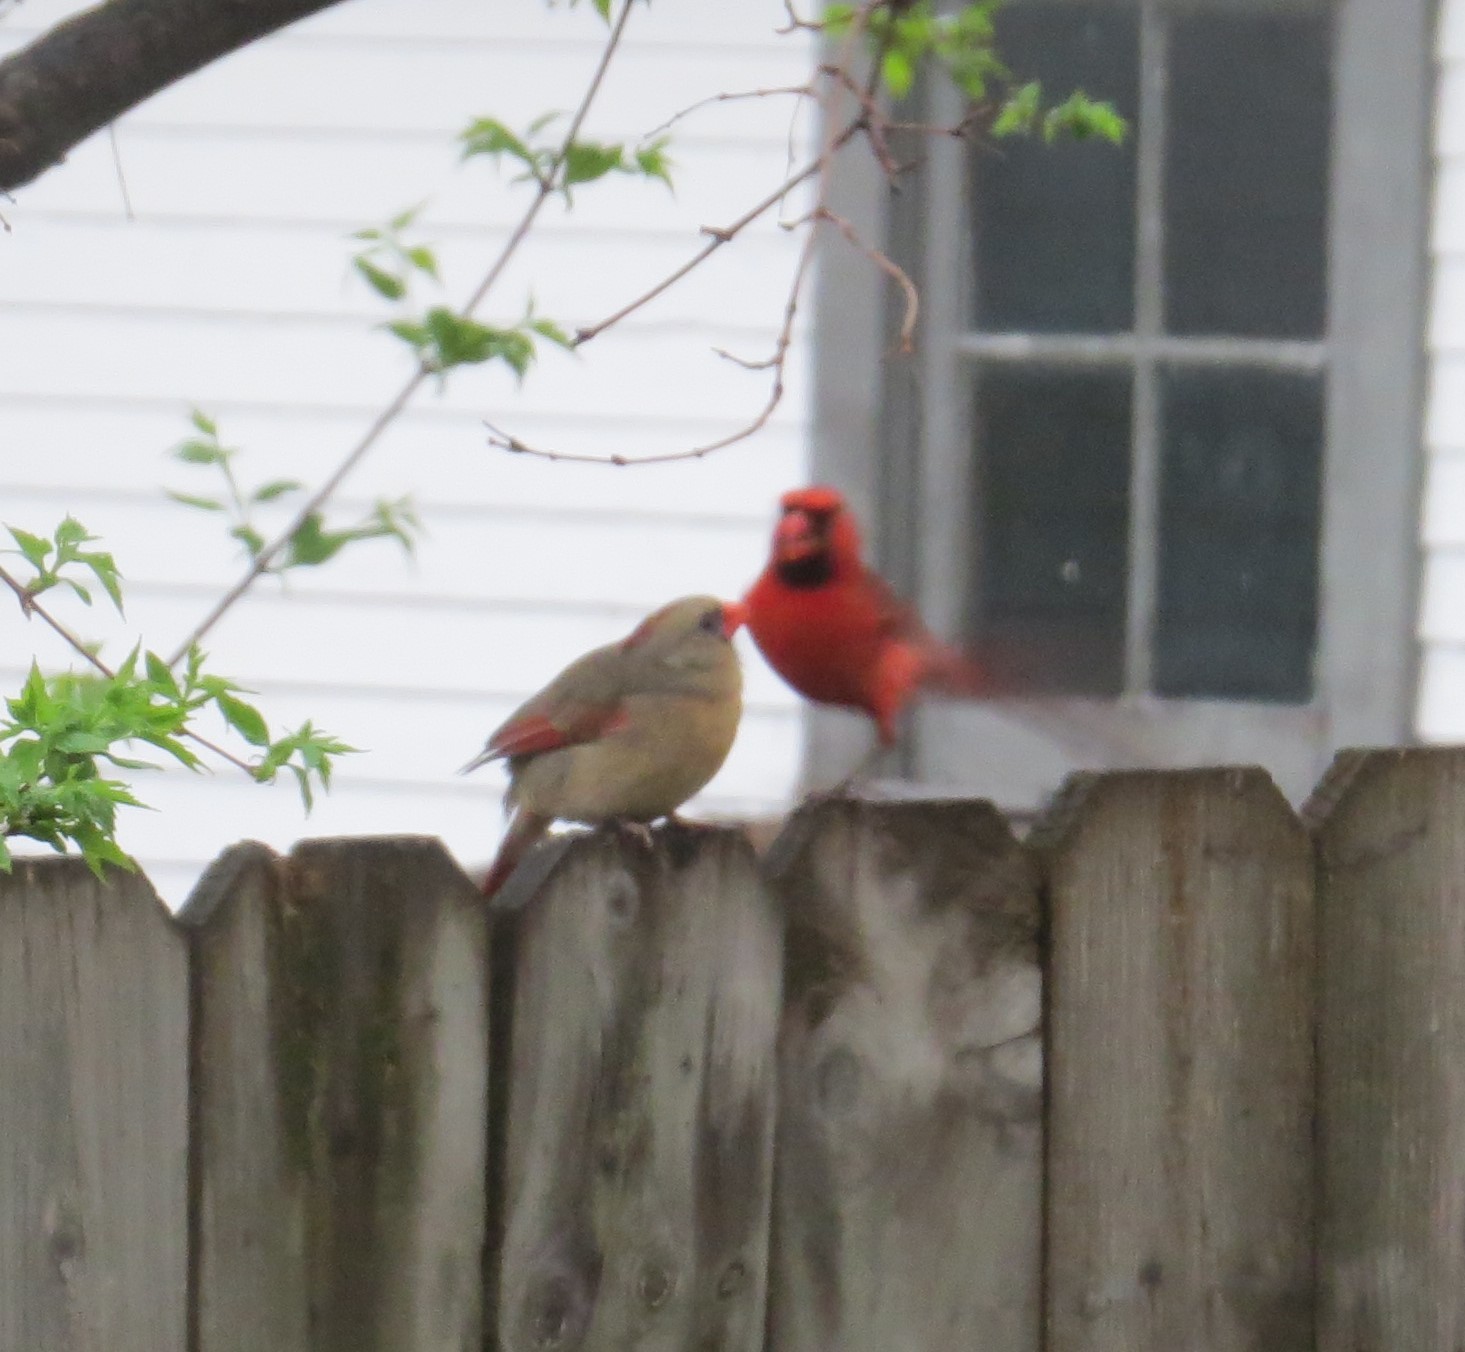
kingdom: Animalia
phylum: Chordata
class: Aves
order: Passeriformes
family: Cardinalidae
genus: Cardinalis
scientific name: Cardinalis cardinalis
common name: Northern cardinal
